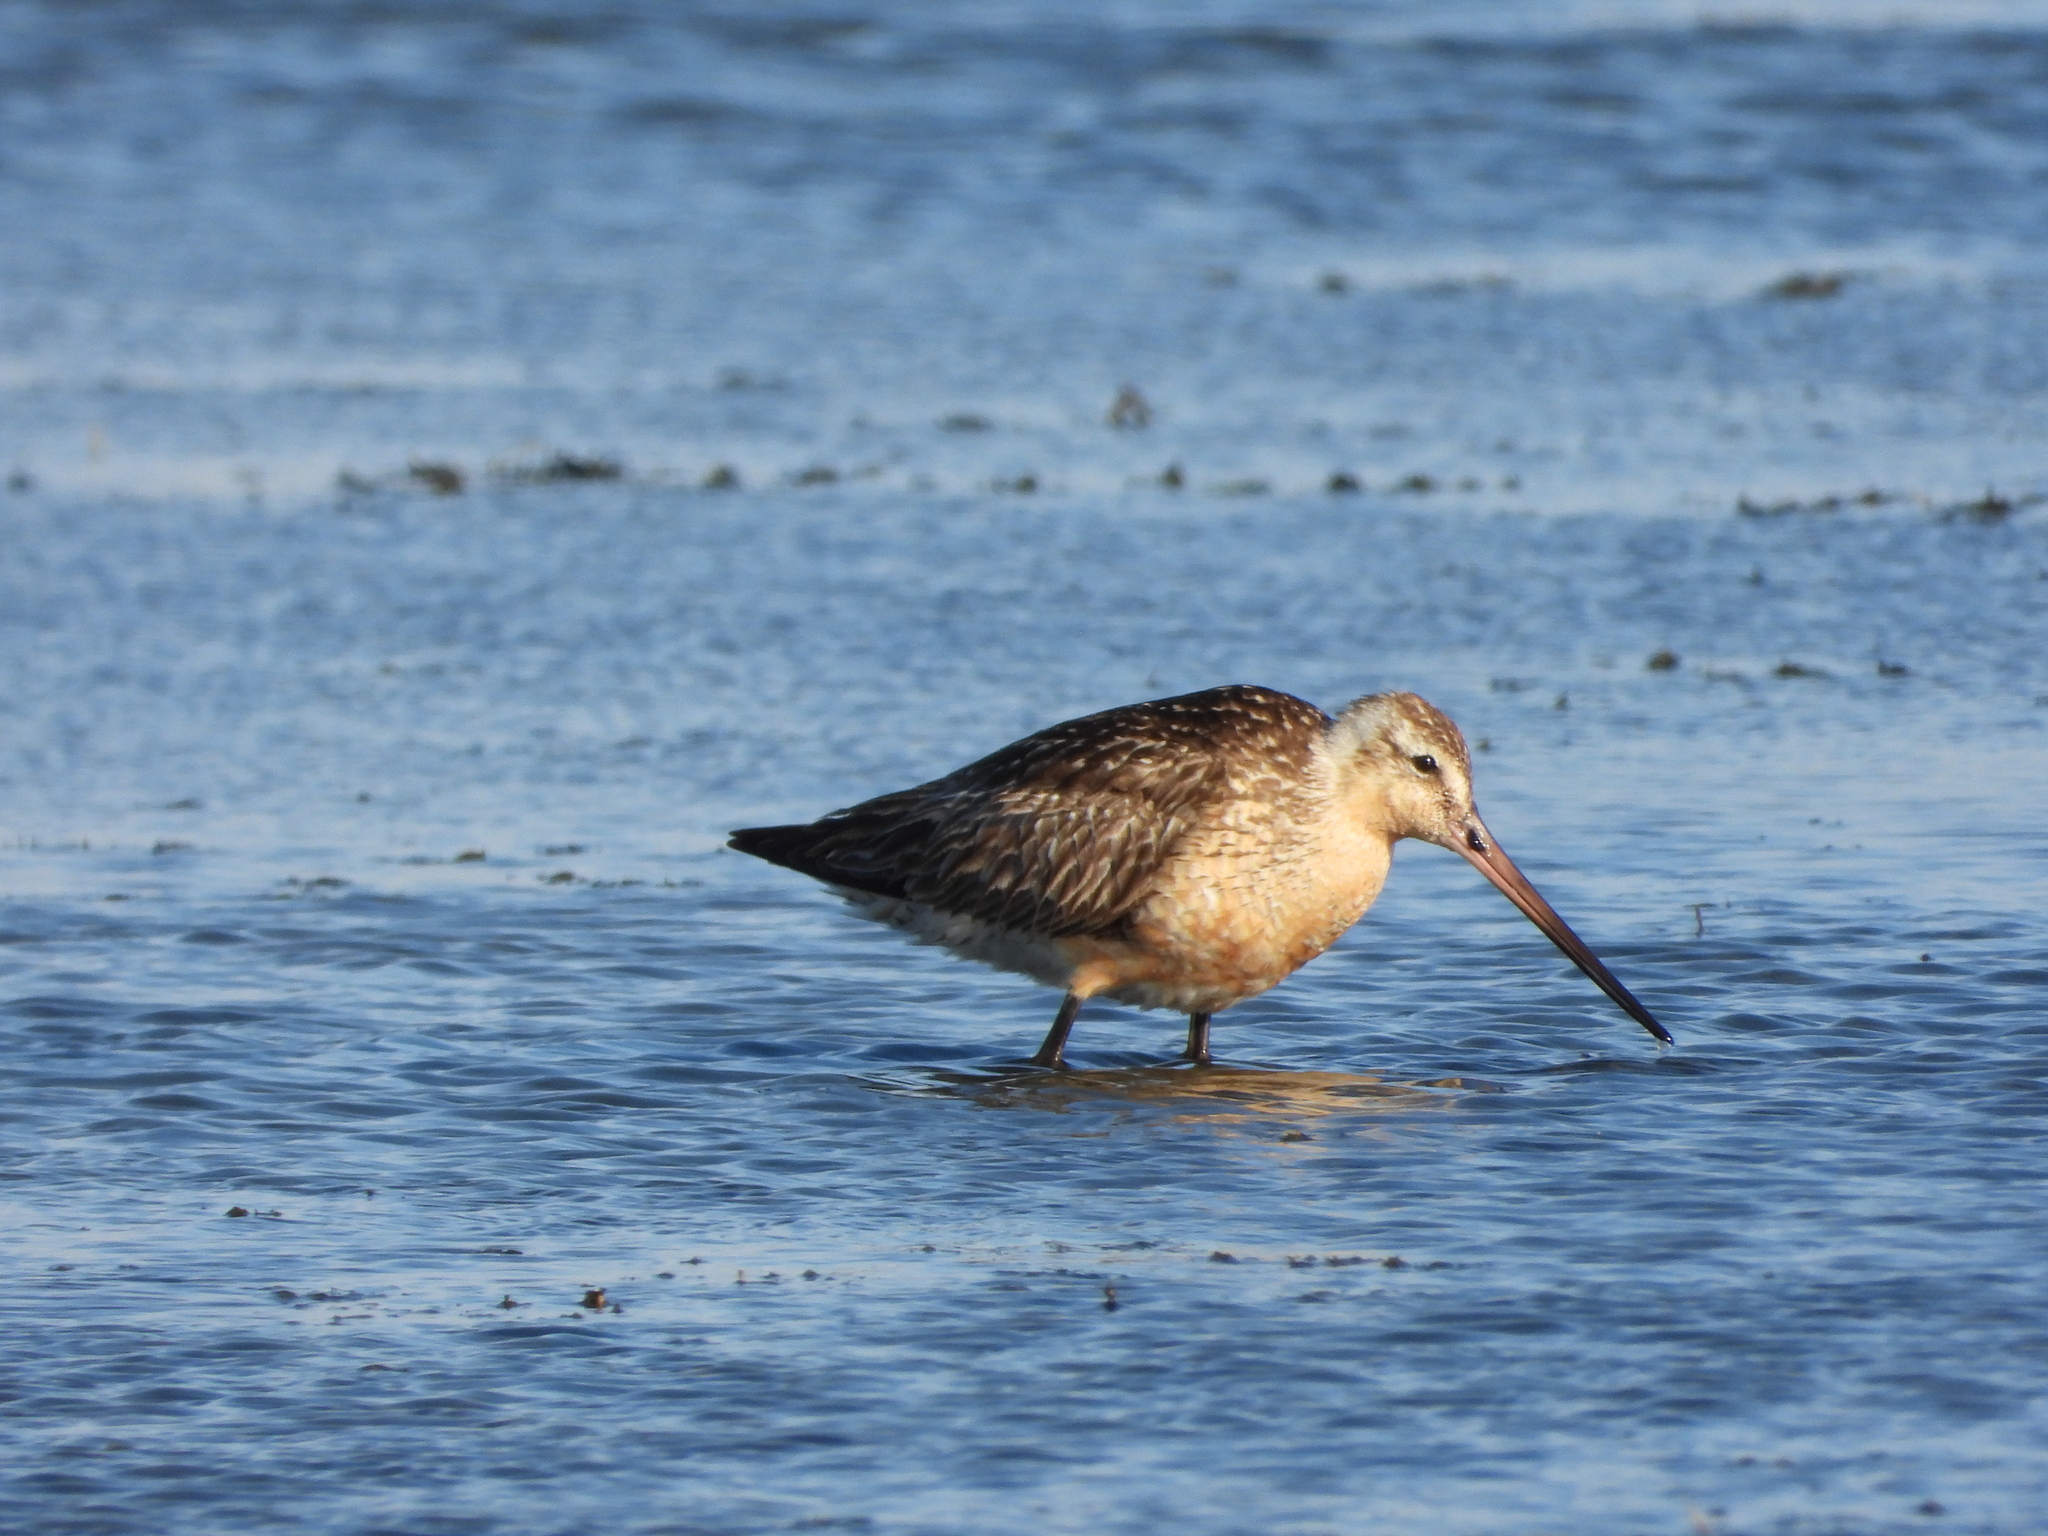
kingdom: Animalia
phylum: Chordata
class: Aves
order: Charadriiformes
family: Scolopacidae
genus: Limosa
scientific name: Limosa lapponica
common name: Bar-tailed godwit
